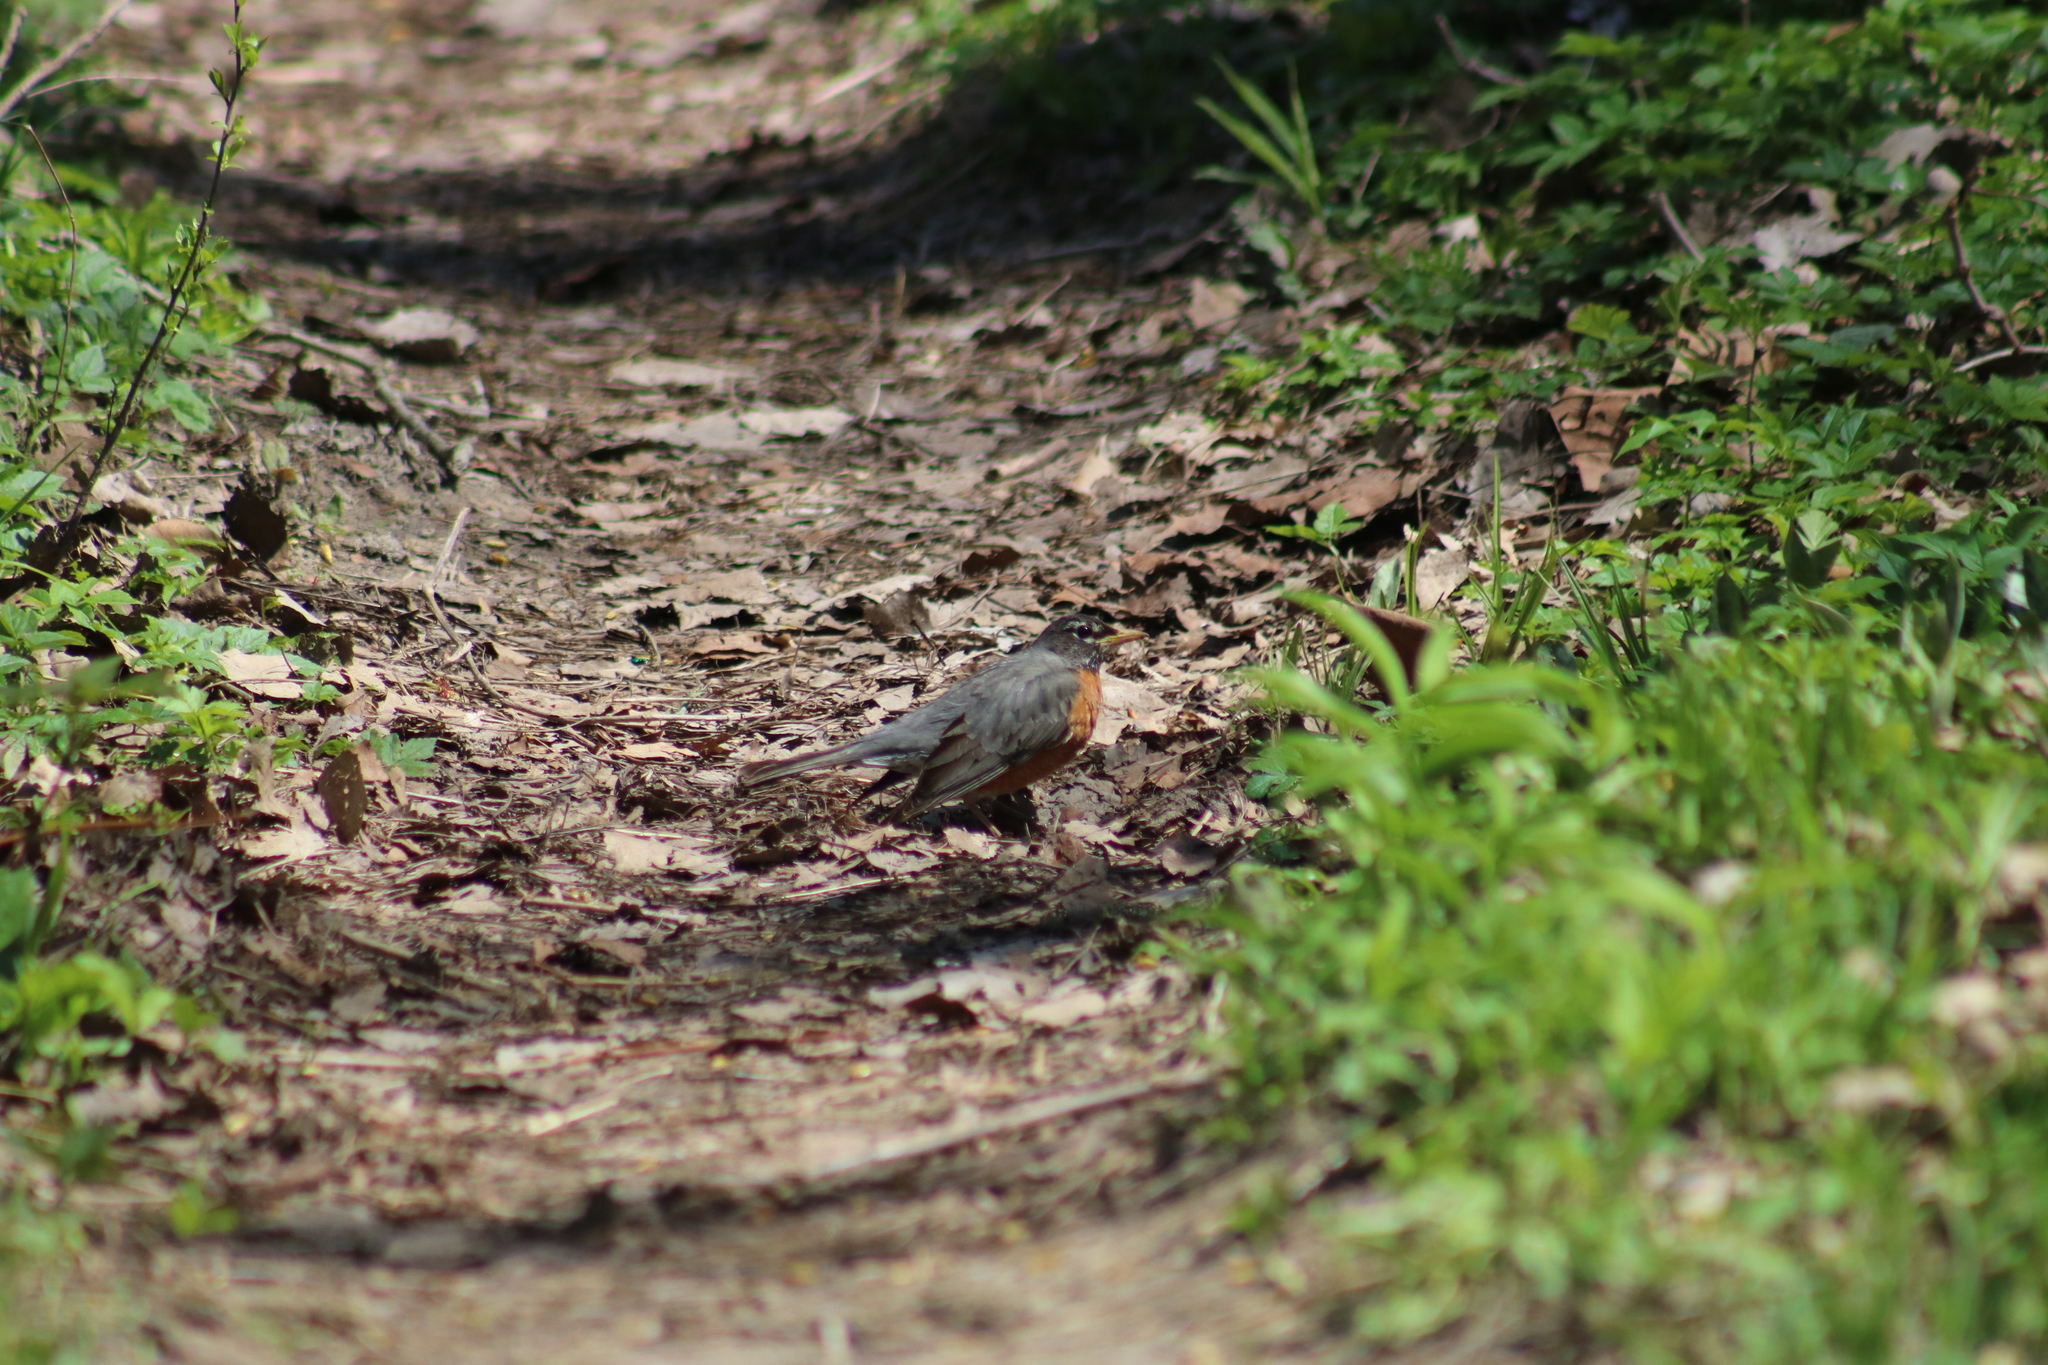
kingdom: Animalia
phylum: Chordata
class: Aves
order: Passeriformes
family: Turdidae
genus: Turdus
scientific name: Turdus migratorius
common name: American robin
